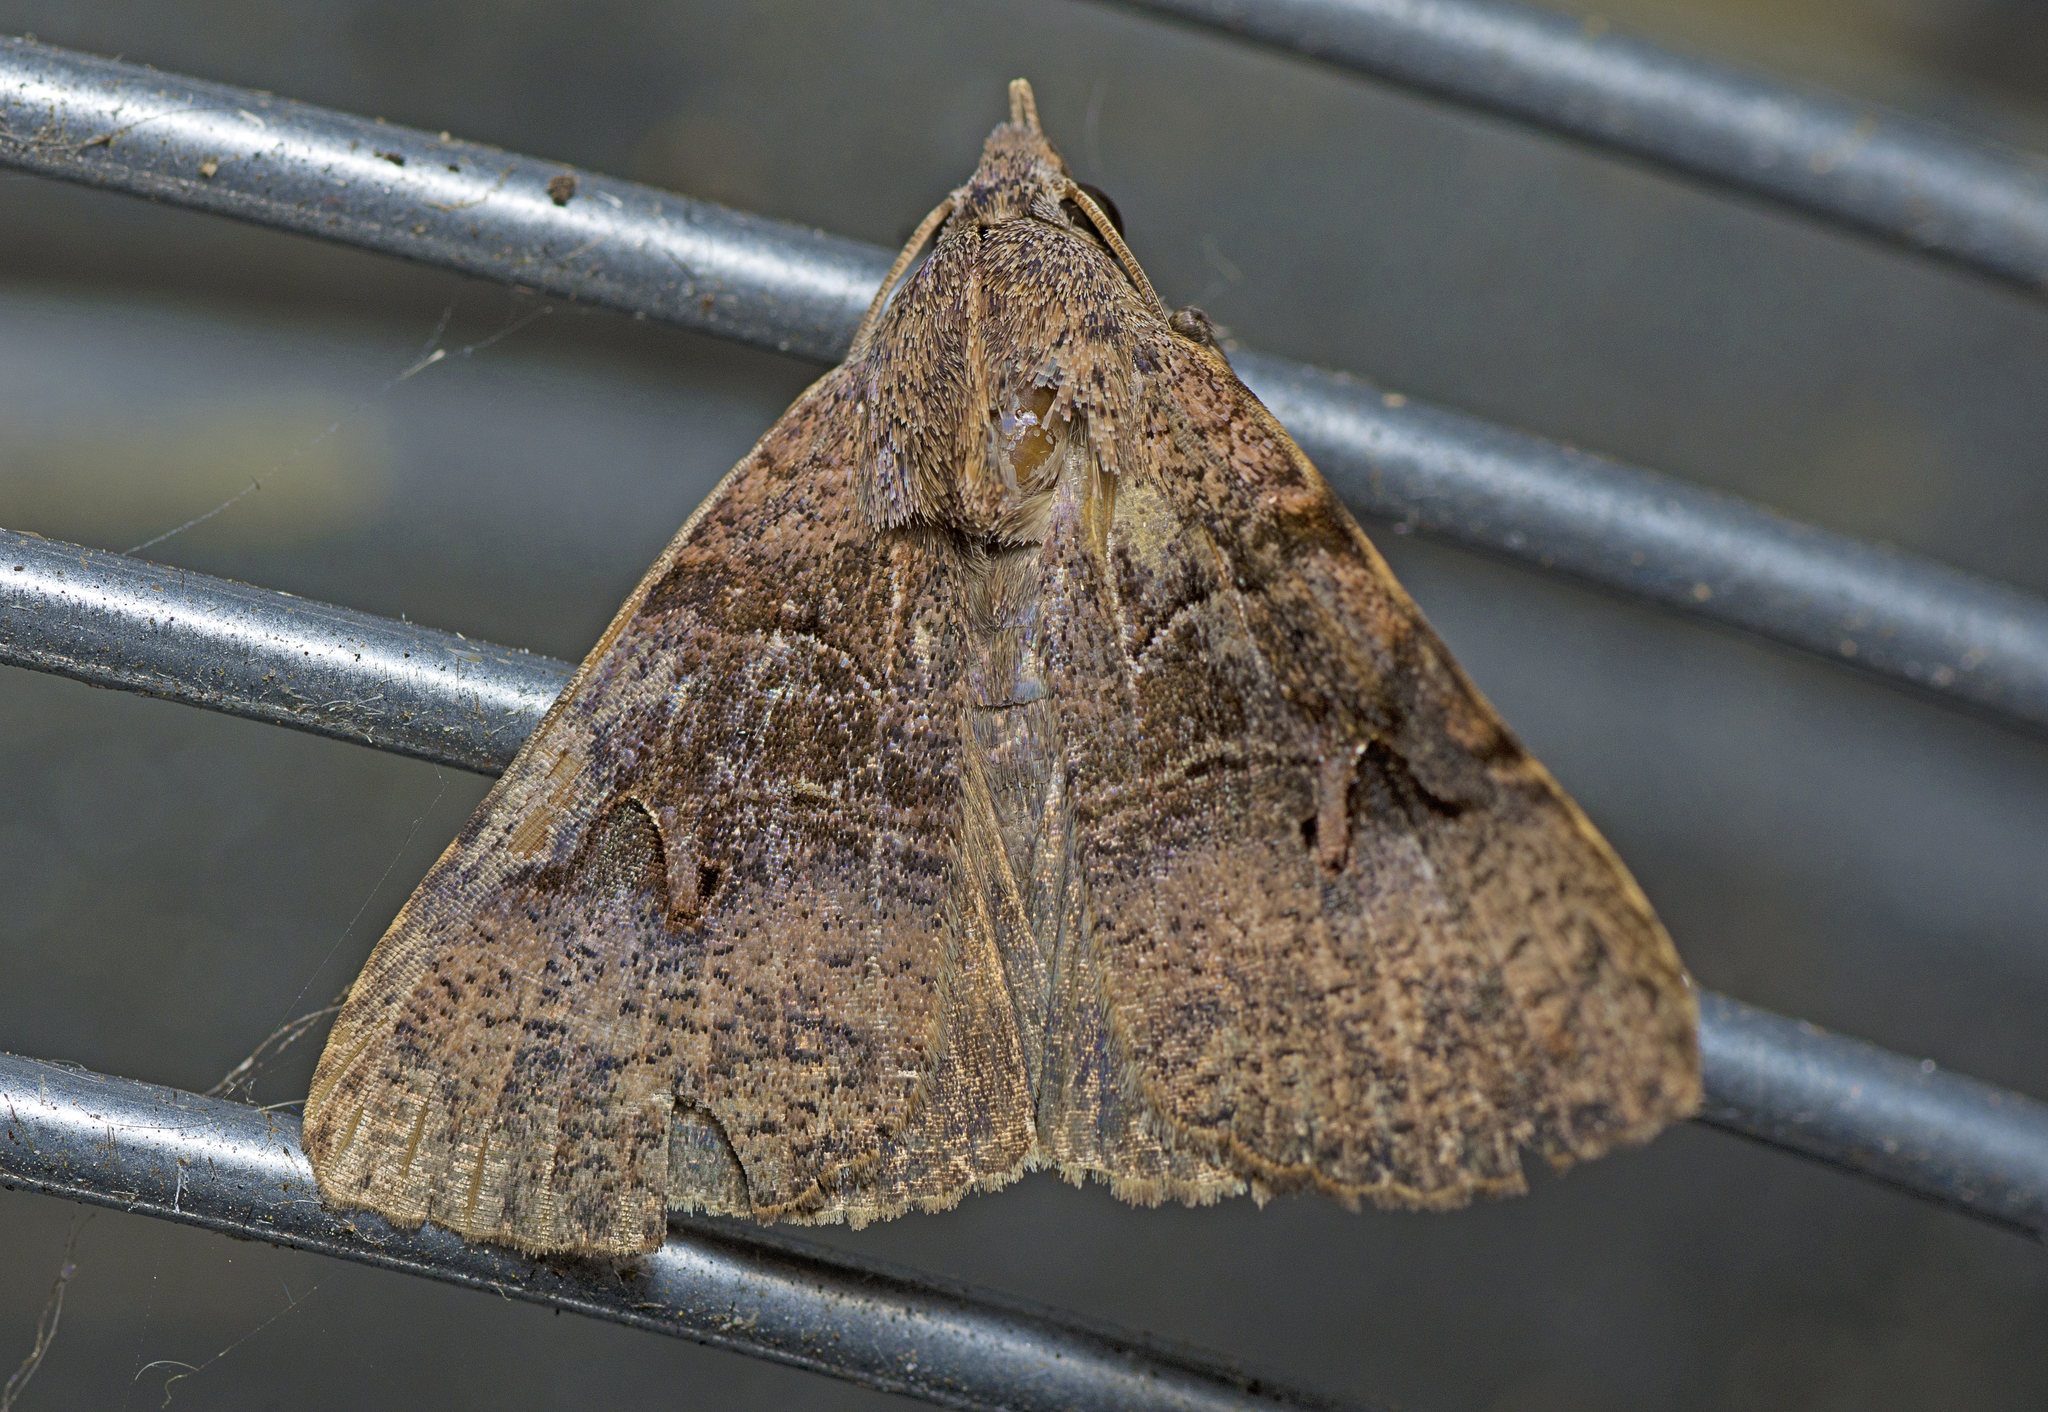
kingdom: Animalia
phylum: Arthropoda
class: Insecta
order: Lepidoptera
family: Erebidae
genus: Avatha
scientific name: Avatha discolor
